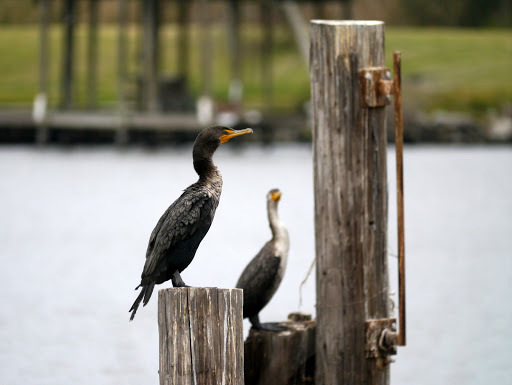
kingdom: Animalia
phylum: Chordata
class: Aves
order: Suliformes
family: Phalacrocoracidae
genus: Phalacrocorax
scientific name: Phalacrocorax auritus
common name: Double-crested cormorant
